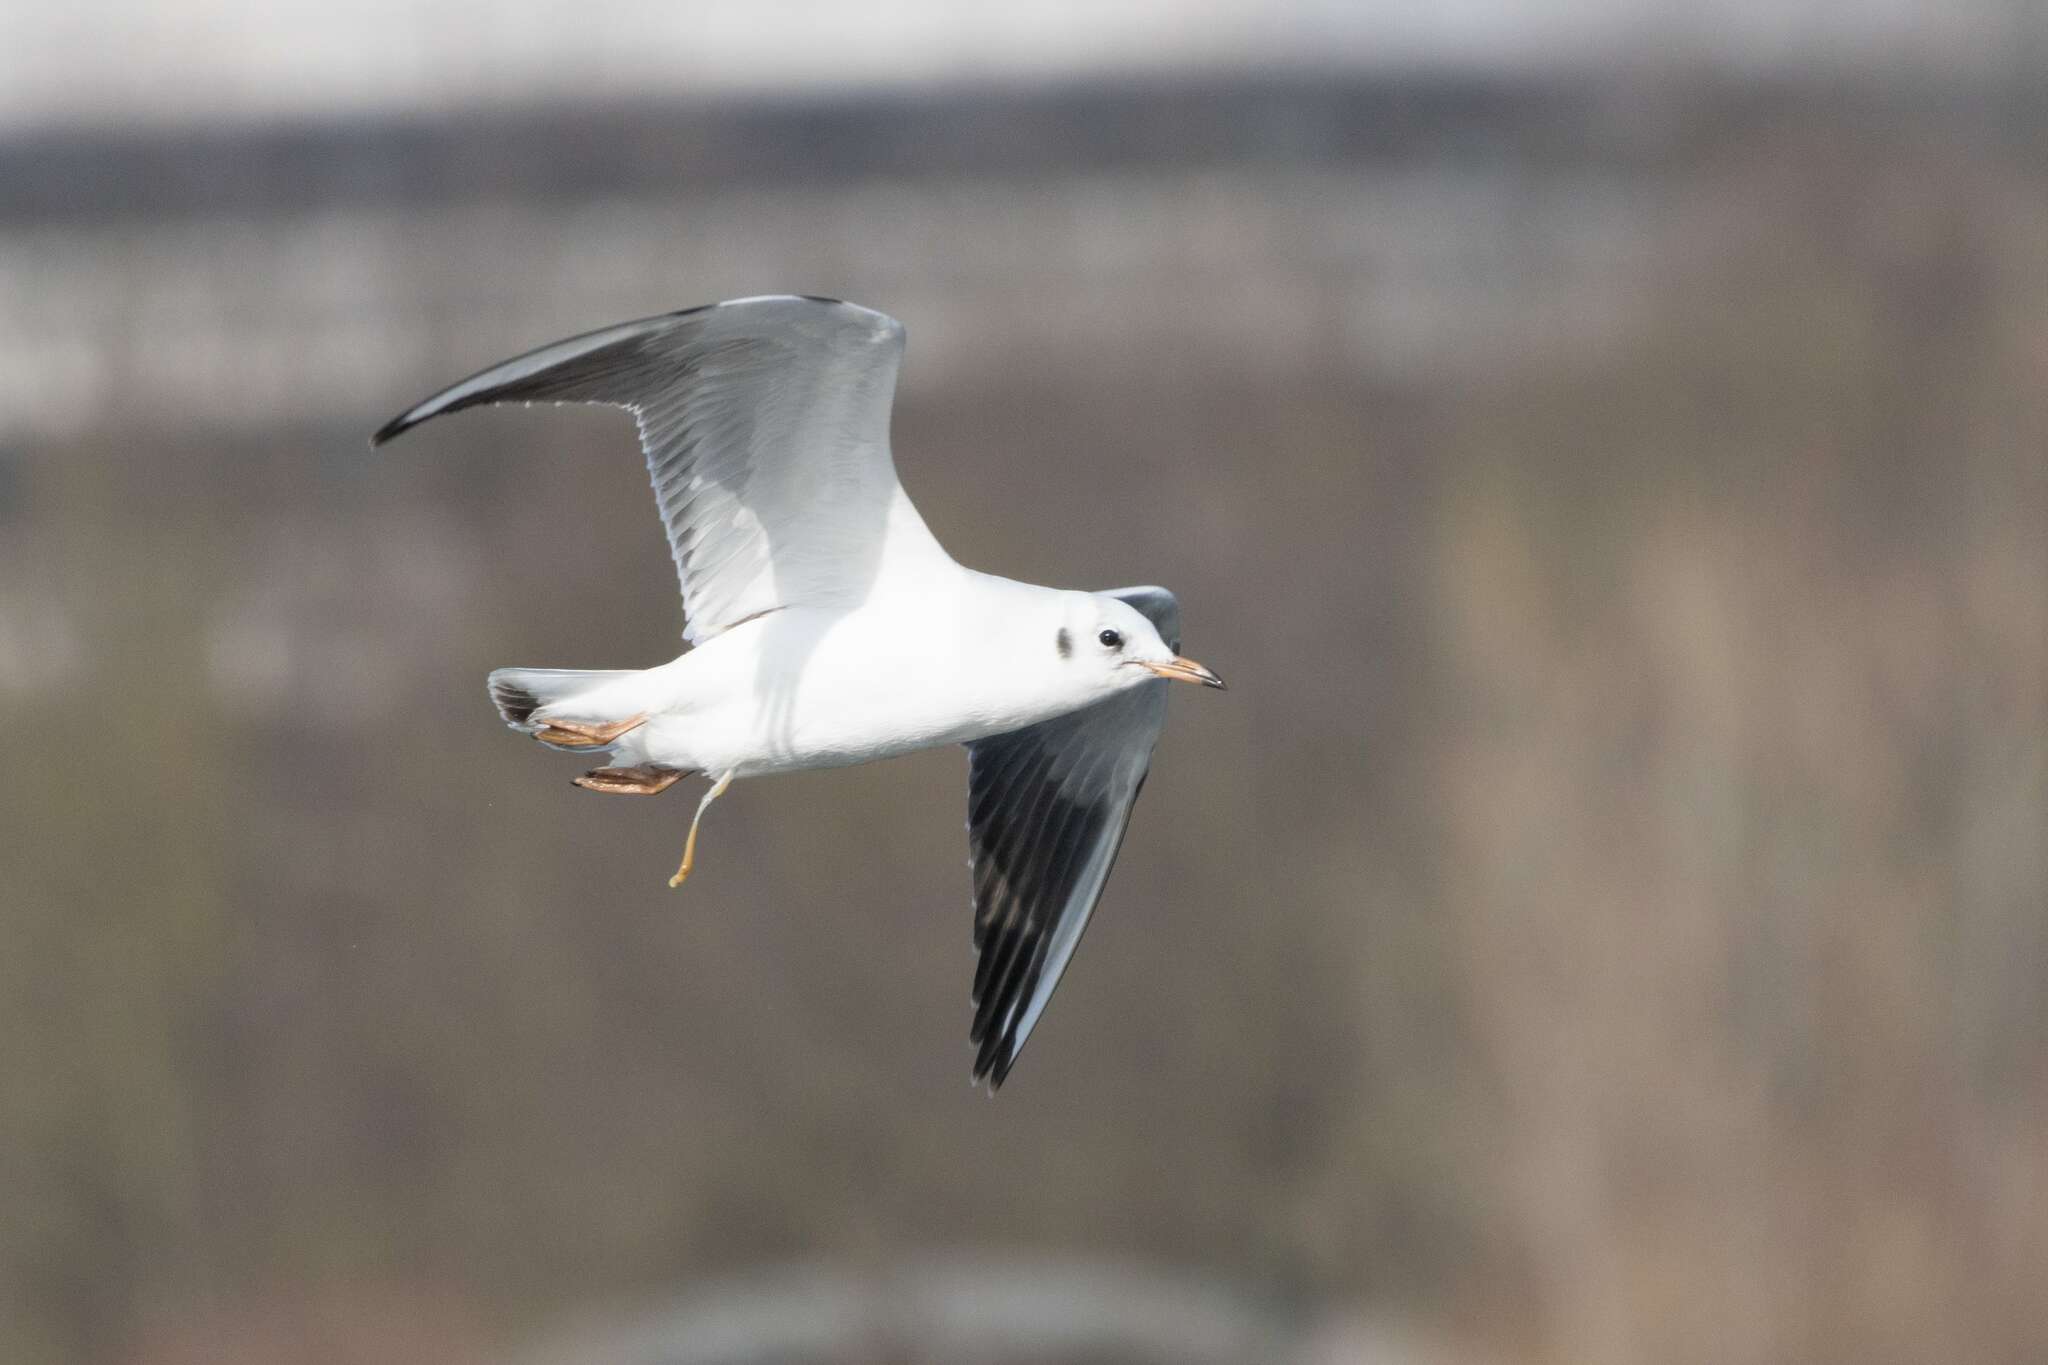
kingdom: Animalia
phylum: Chordata
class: Aves
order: Charadriiformes
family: Laridae
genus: Chroicocephalus
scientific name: Chroicocephalus ridibundus
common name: Black-headed gull
